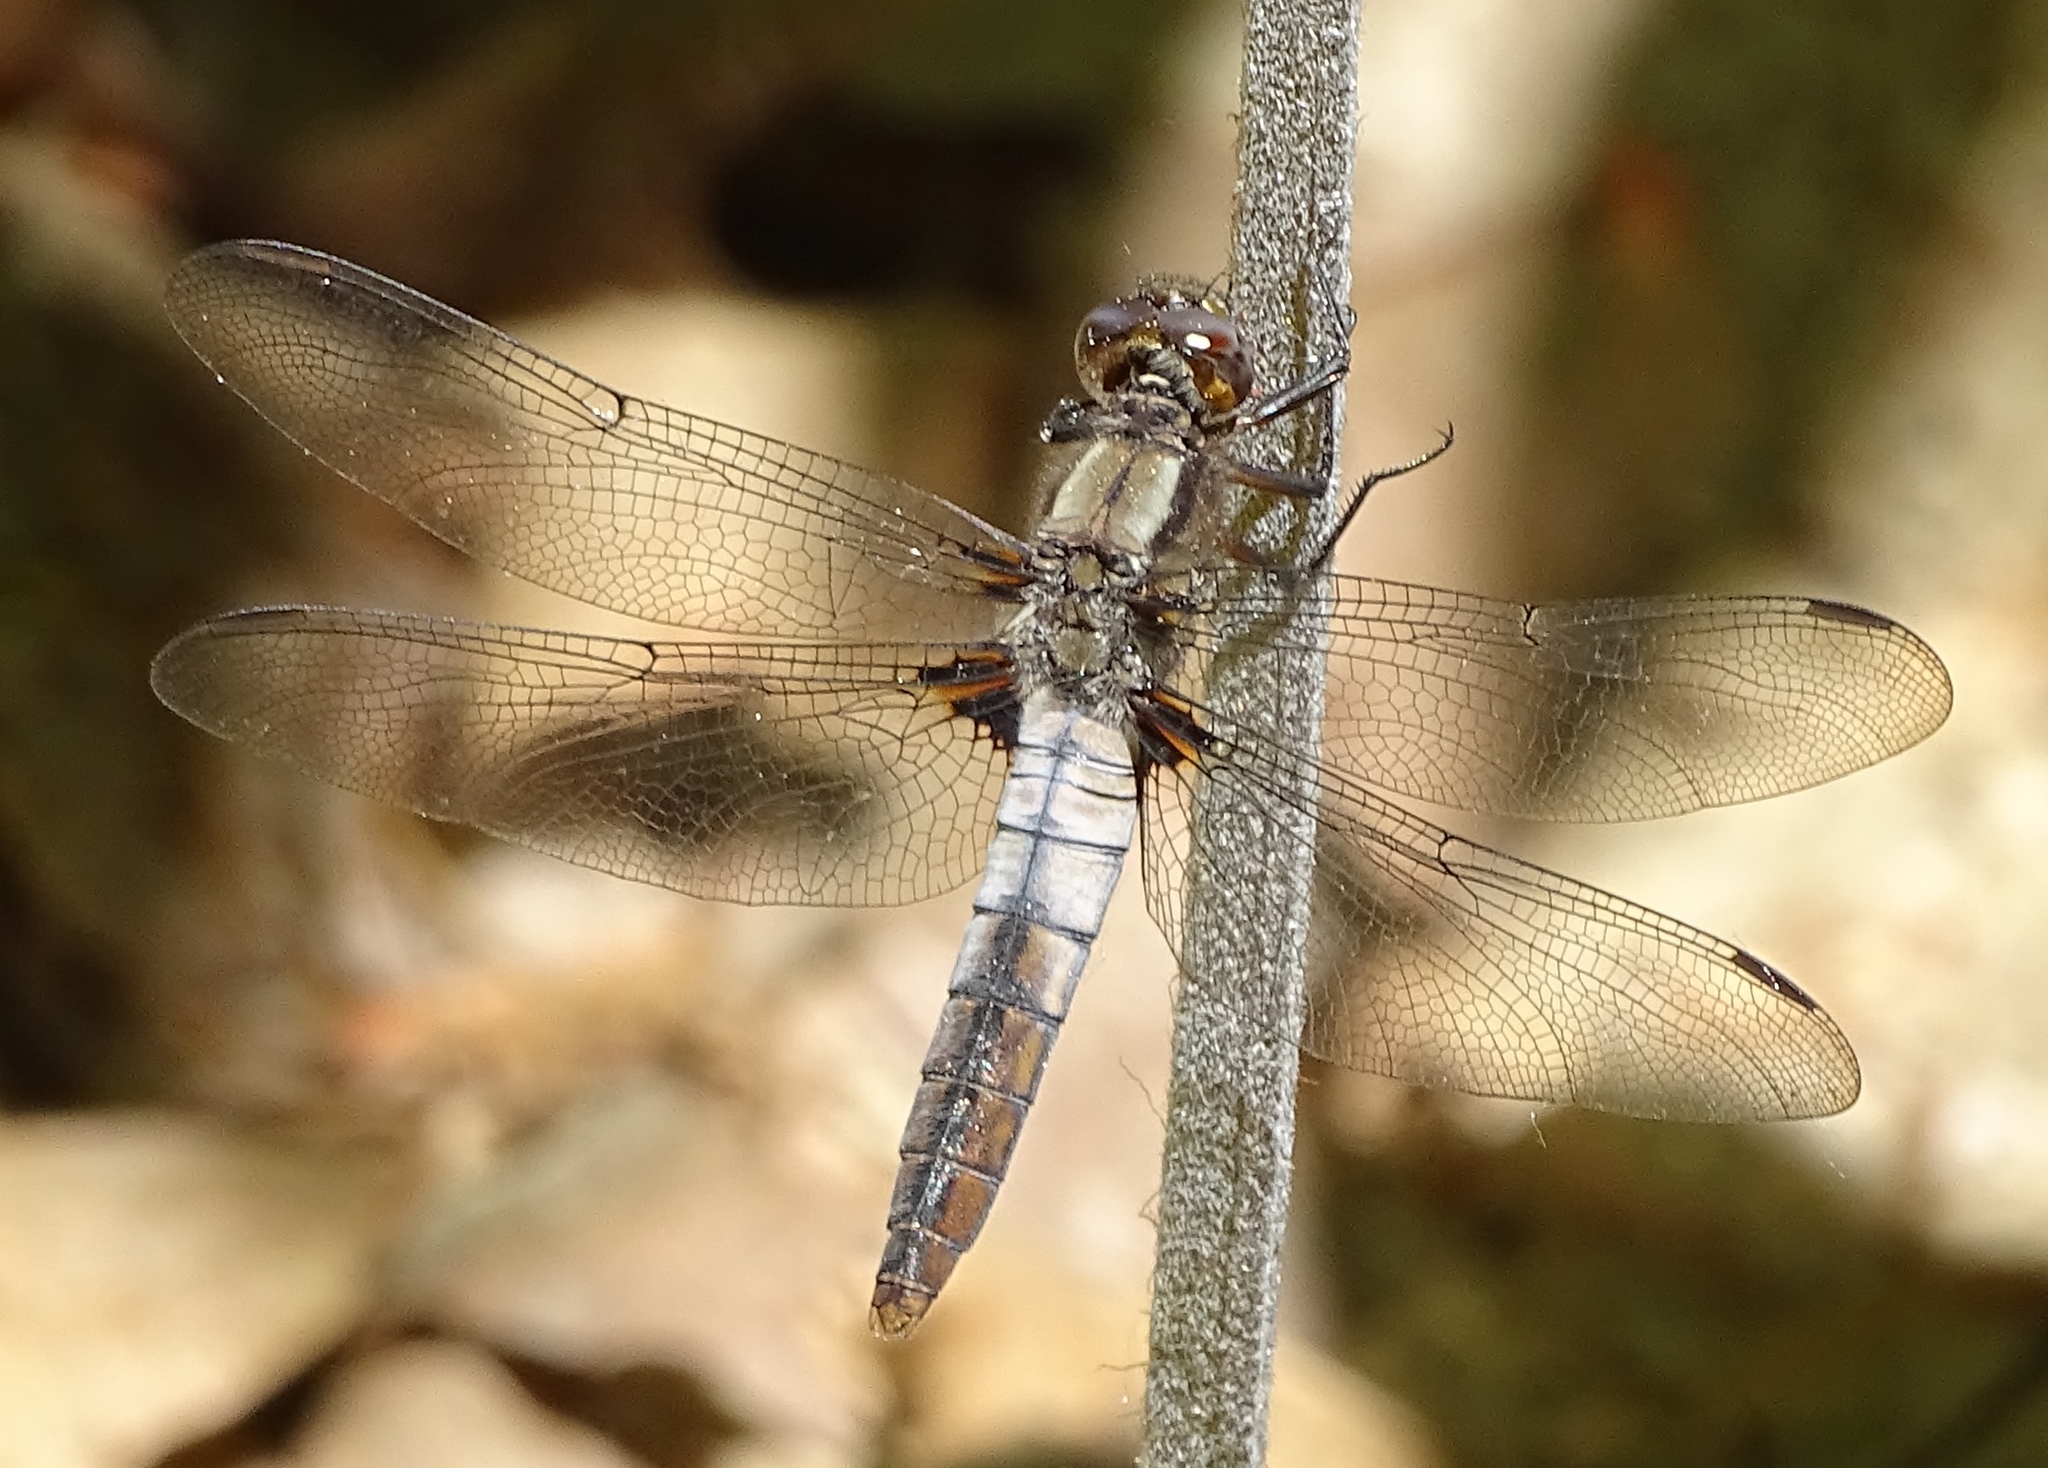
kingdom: Animalia
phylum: Arthropoda
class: Insecta
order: Odonata
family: Libellulidae
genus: Ladona
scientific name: Ladona julia
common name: Chalk-fronted corporal
